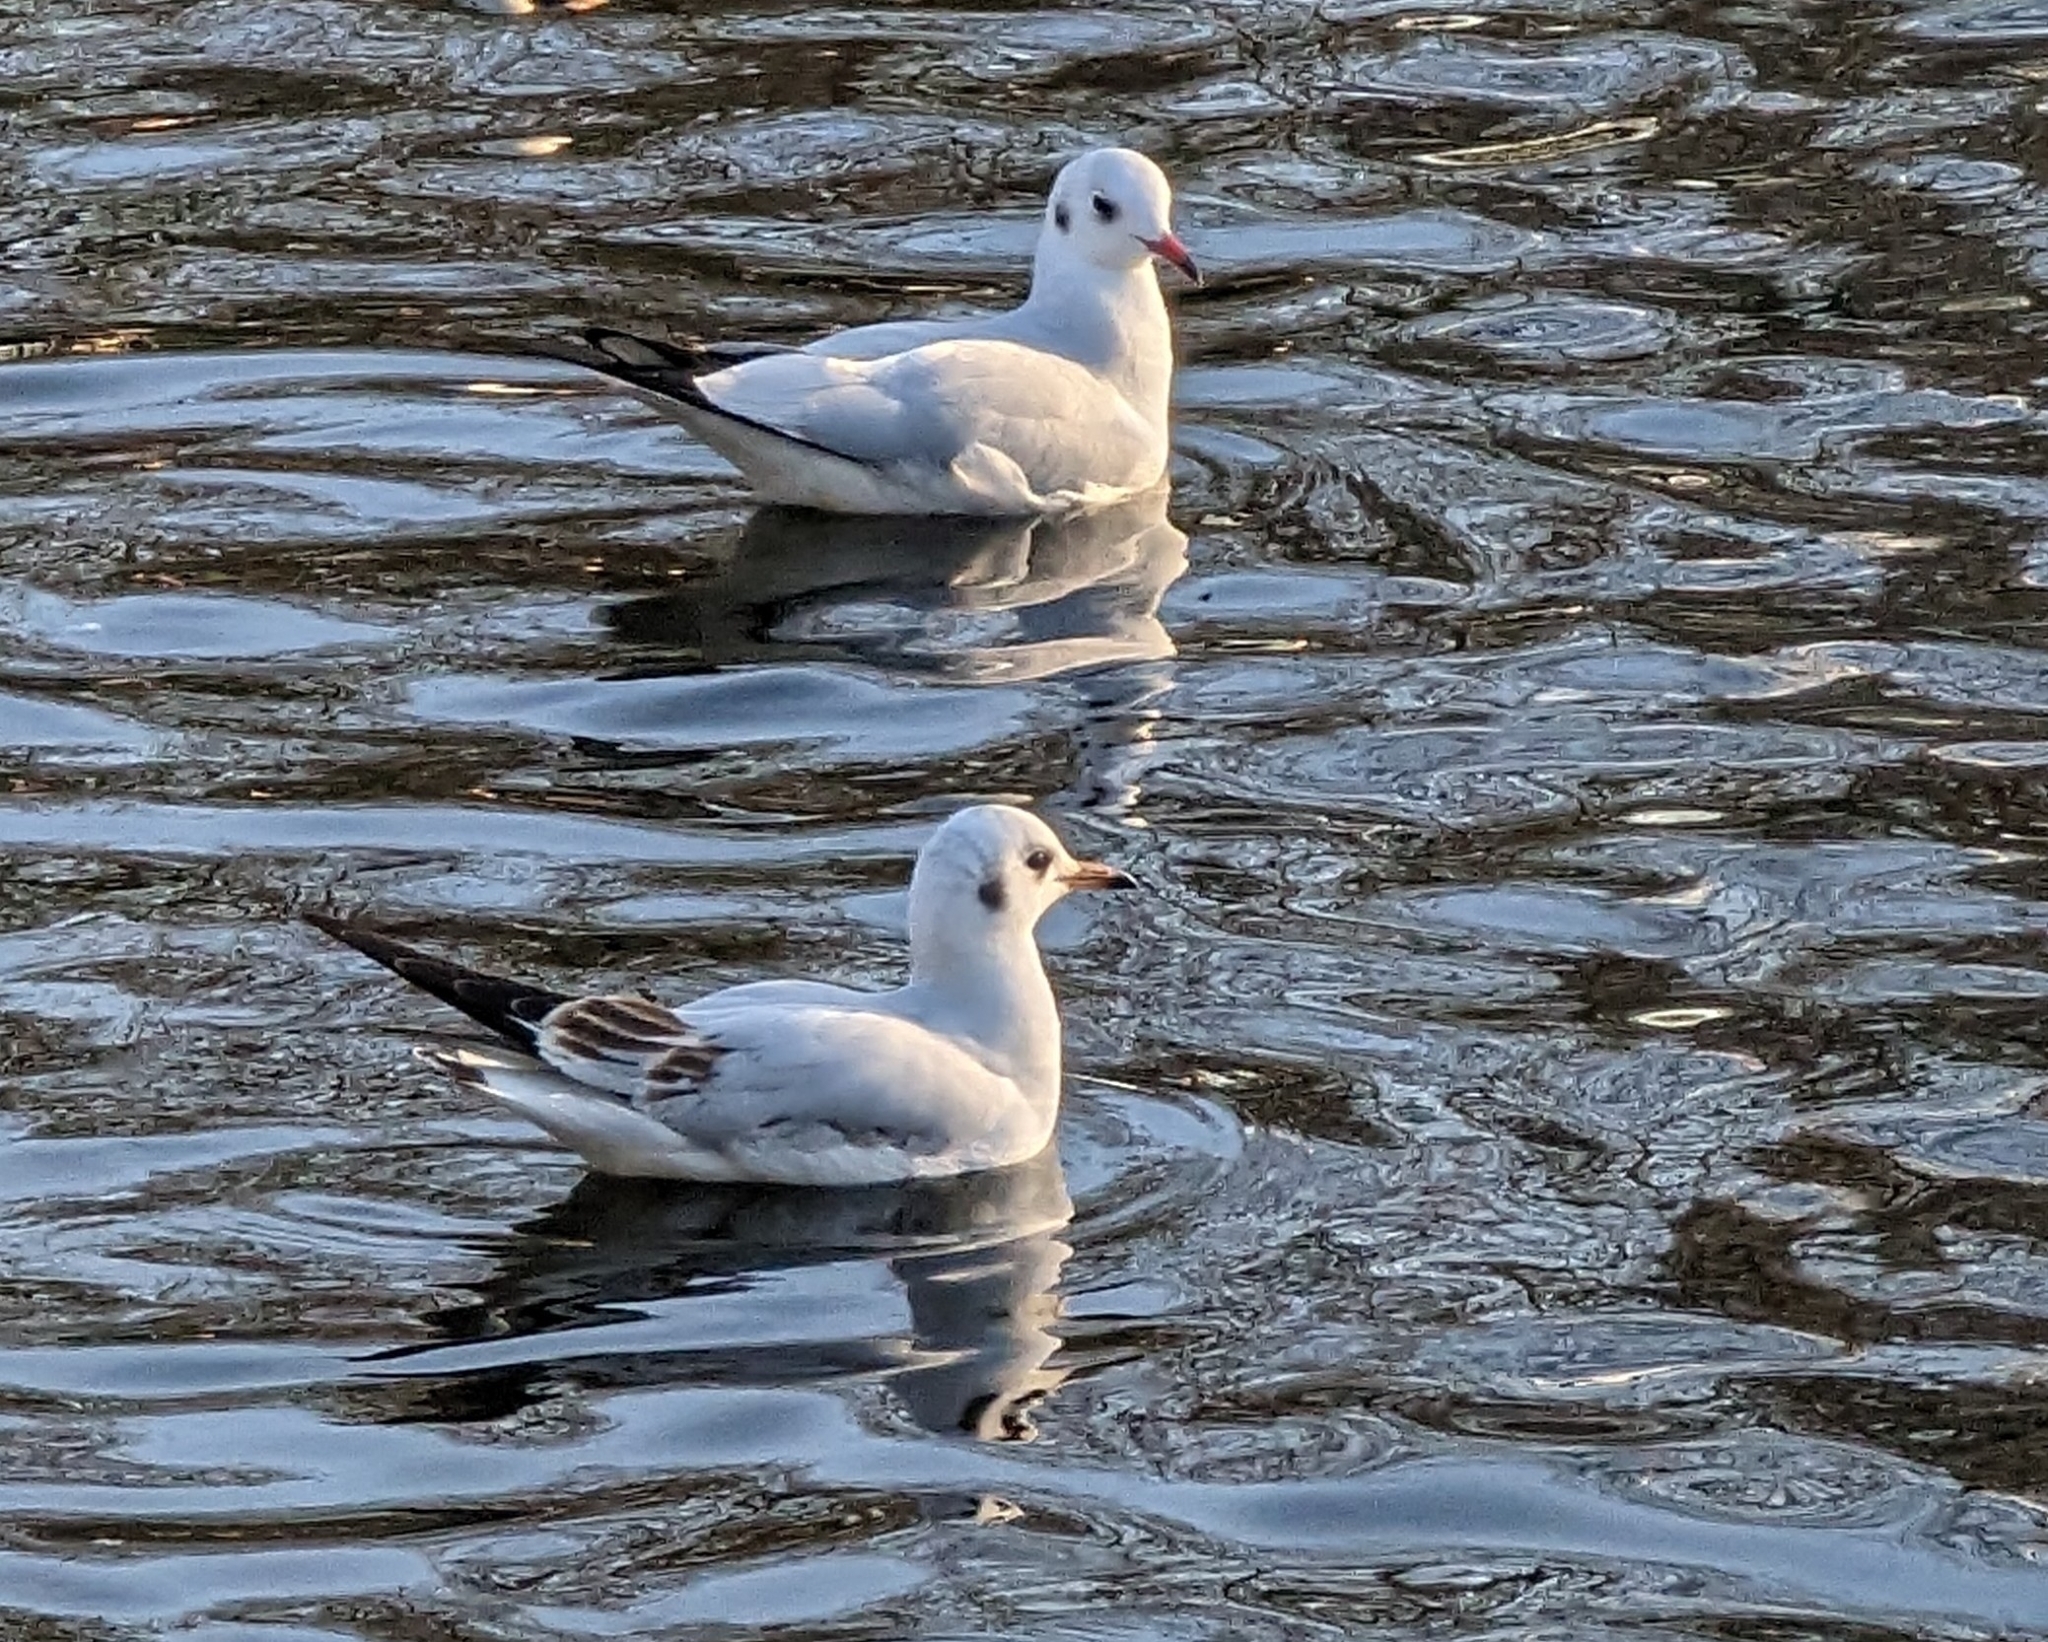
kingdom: Animalia
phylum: Chordata
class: Aves
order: Charadriiformes
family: Laridae
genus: Chroicocephalus
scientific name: Chroicocephalus ridibundus
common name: Black-headed gull
